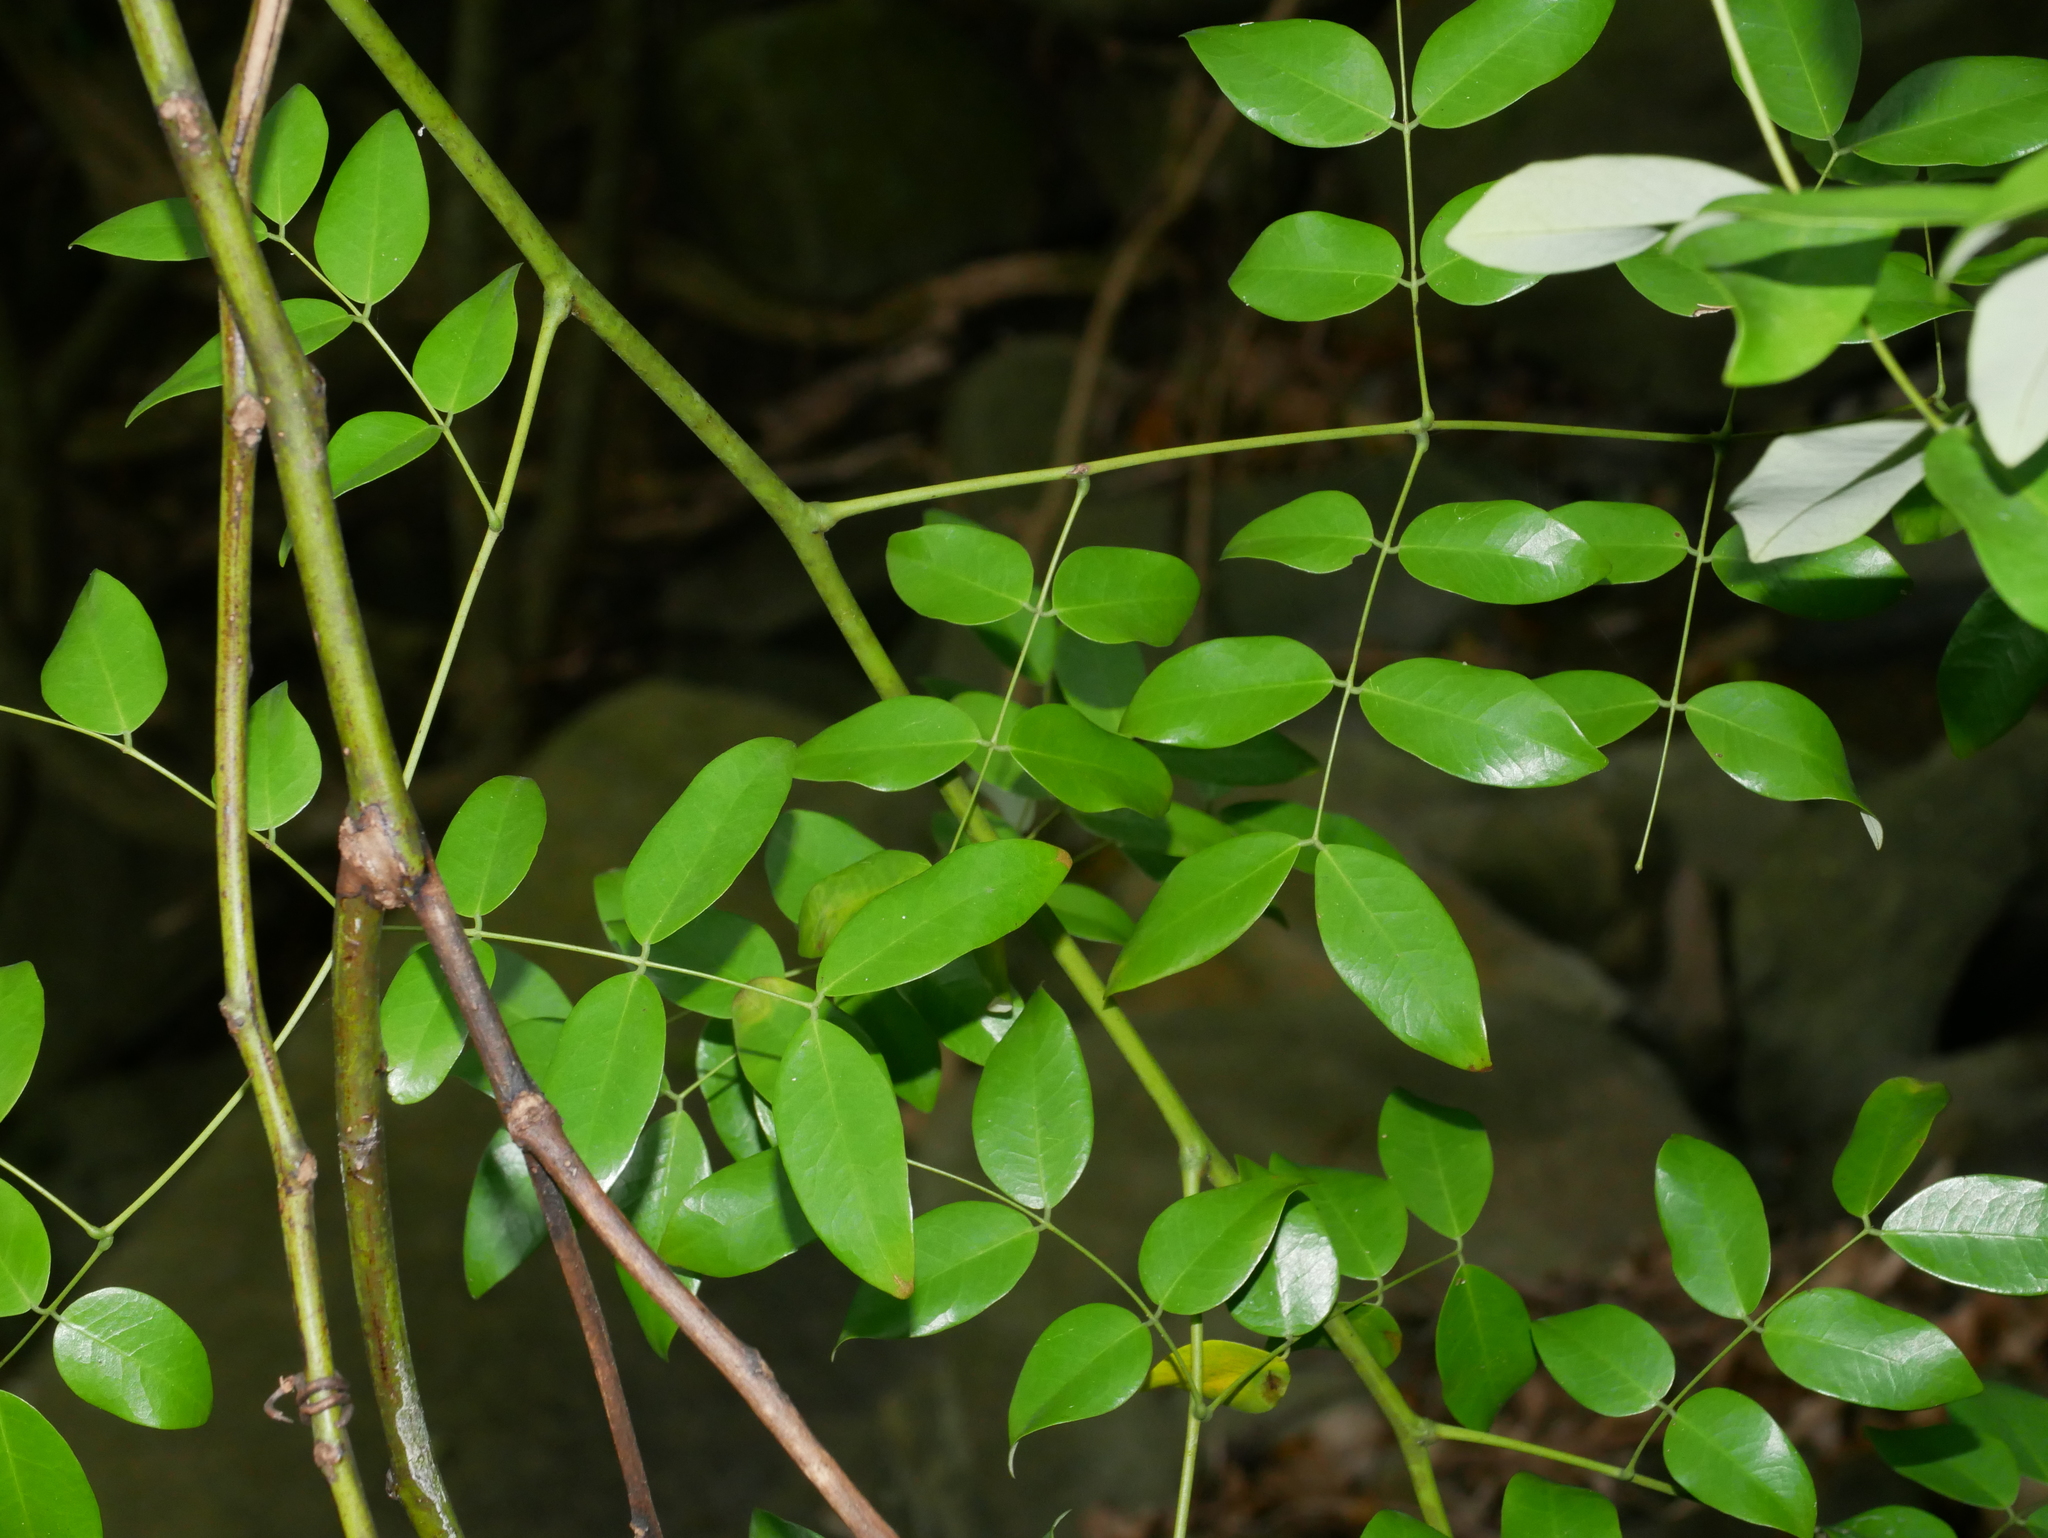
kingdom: Plantae
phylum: Tracheophyta
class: Magnoliopsida
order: Fabales
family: Fabaceae
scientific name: Fabaceae
